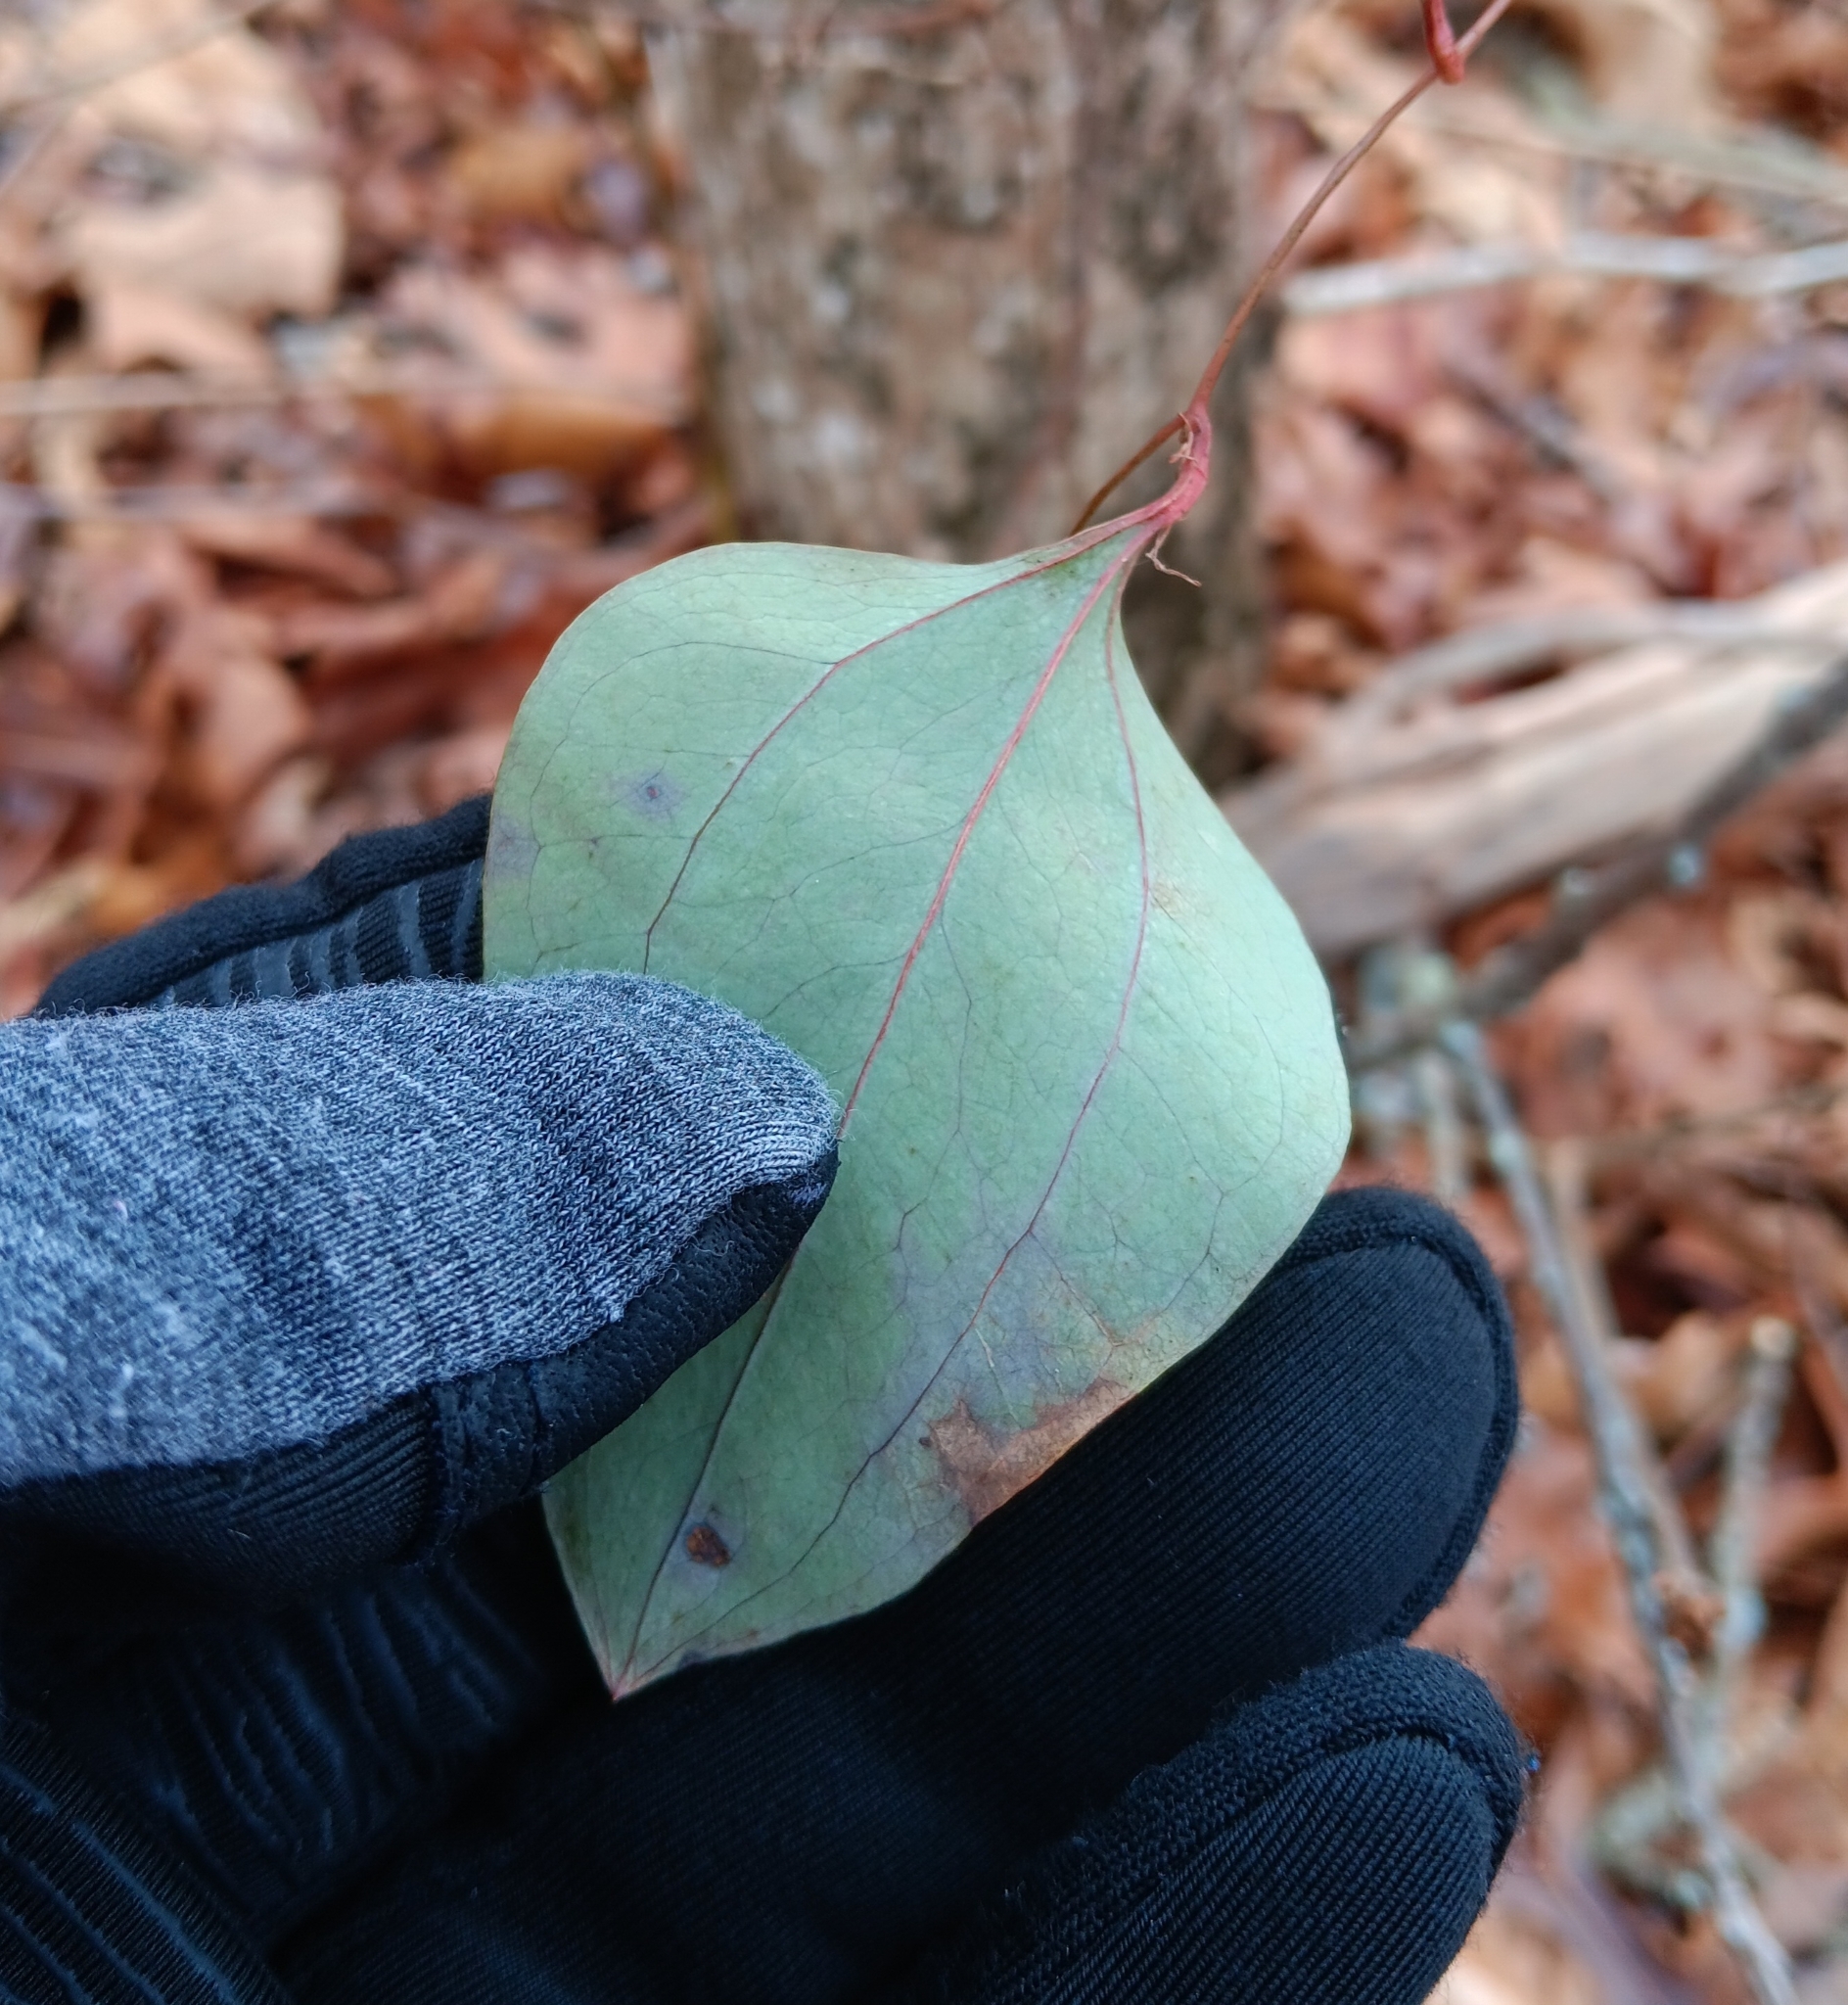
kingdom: Plantae
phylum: Tracheophyta
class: Liliopsida
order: Liliales
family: Smilacaceae
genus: Smilax
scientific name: Smilax glauca
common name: Cat greenbrier
